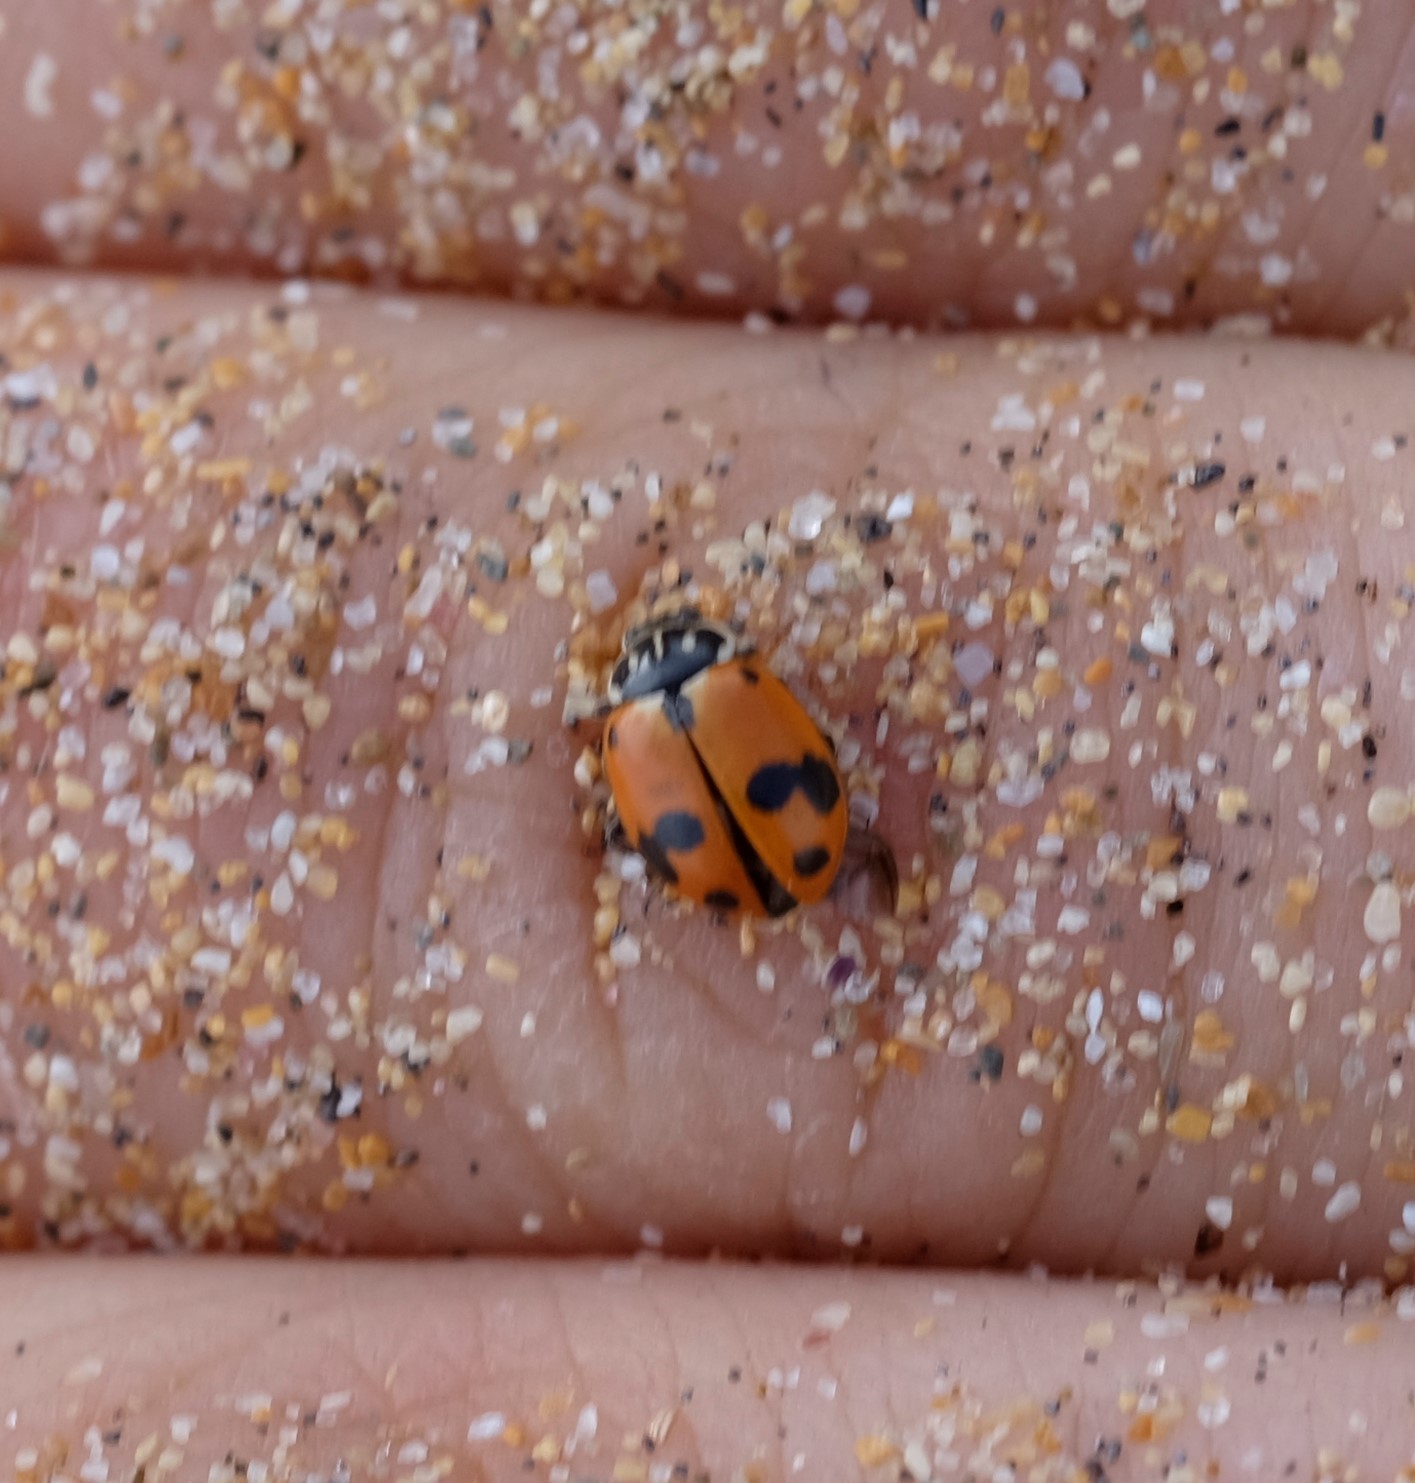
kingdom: Animalia
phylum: Arthropoda
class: Insecta
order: Coleoptera
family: Coccinellidae
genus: Hippodamia
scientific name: Hippodamia variegata
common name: Ladybird beetle
